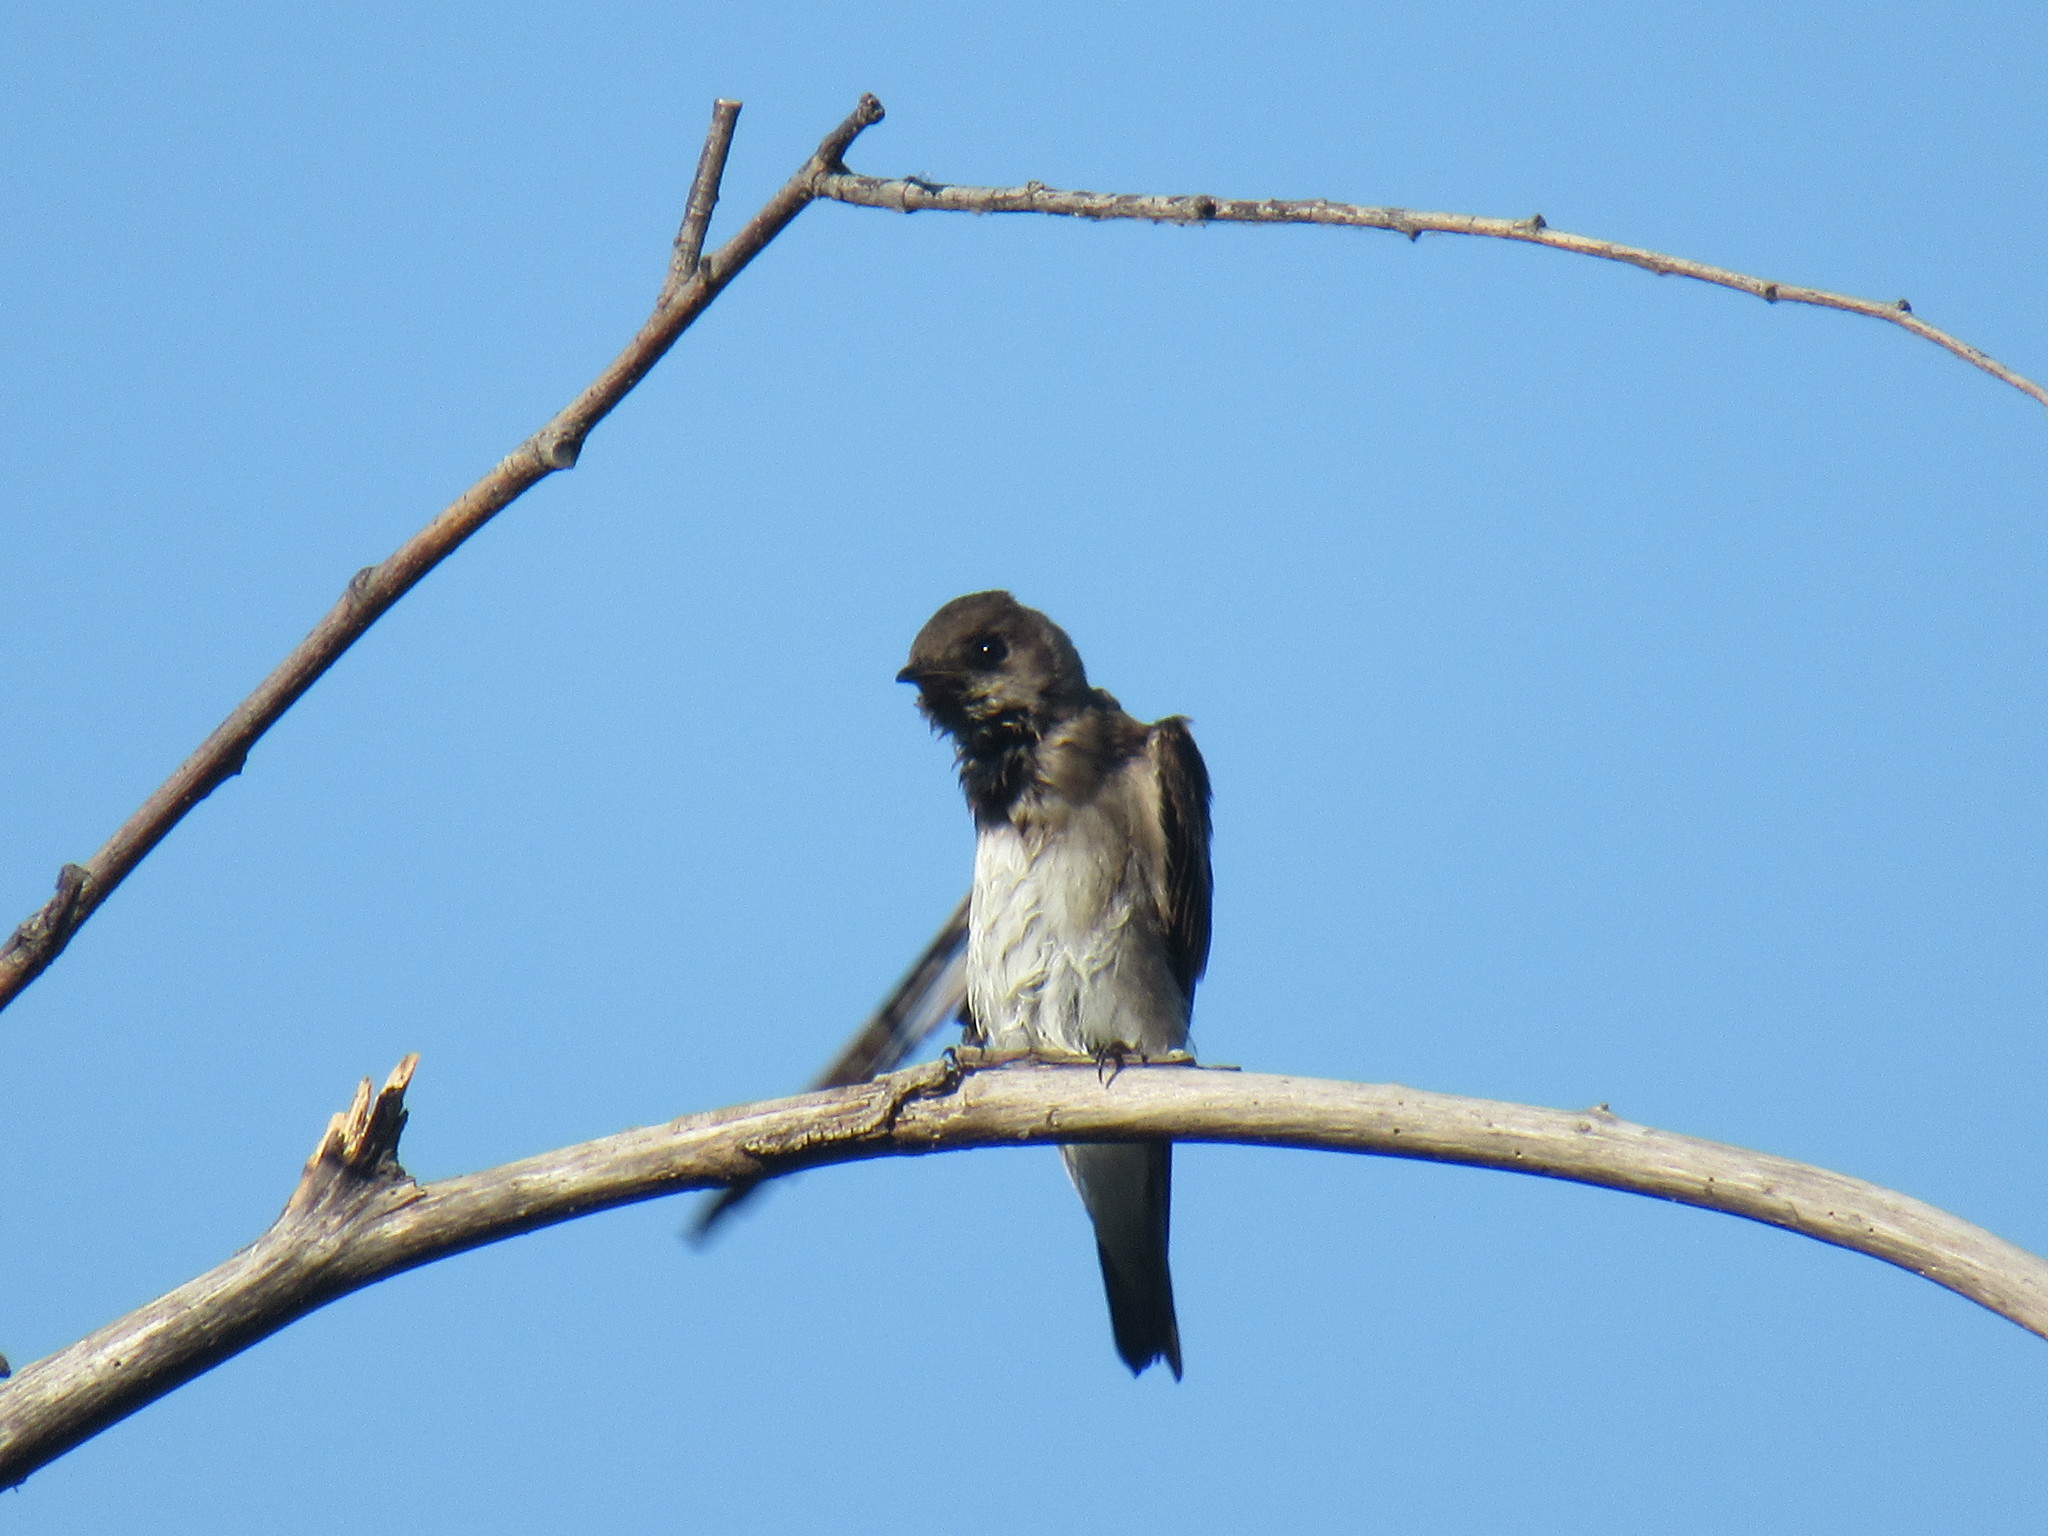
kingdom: Animalia
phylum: Chordata
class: Aves
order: Passeriformes
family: Hirundinidae
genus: Stelgidopteryx
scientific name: Stelgidopteryx serripennis
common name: Northern rough-winged swallow
